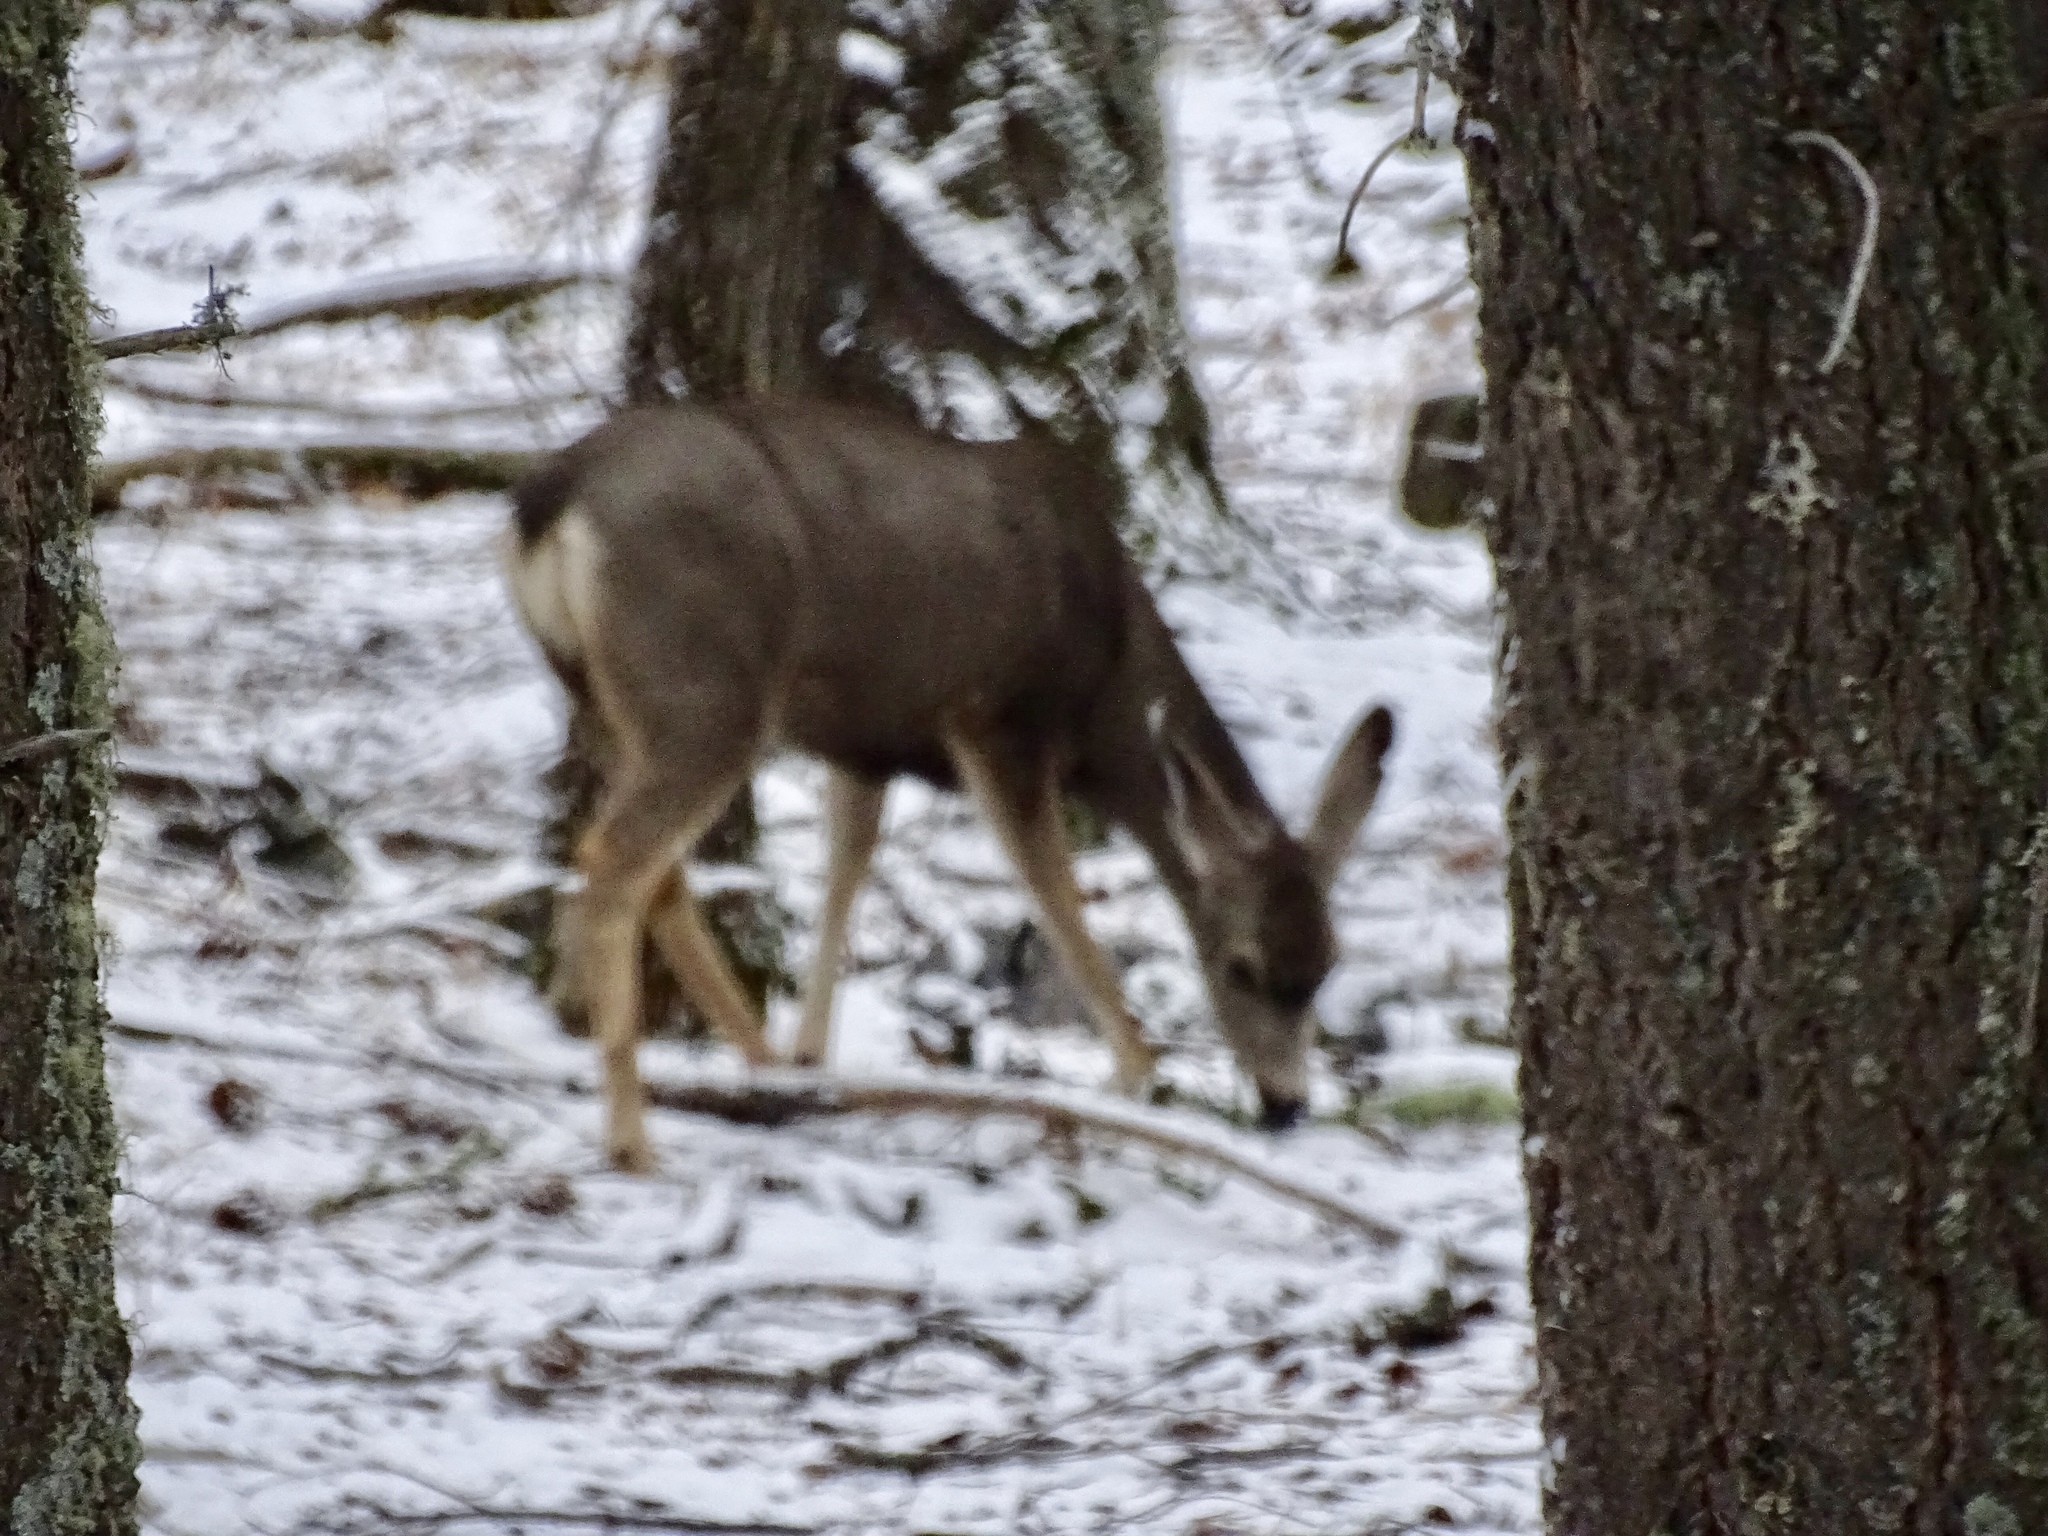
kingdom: Animalia
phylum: Chordata
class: Mammalia
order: Artiodactyla
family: Cervidae
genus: Odocoileus
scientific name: Odocoileus hemionus
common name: Mule deer
